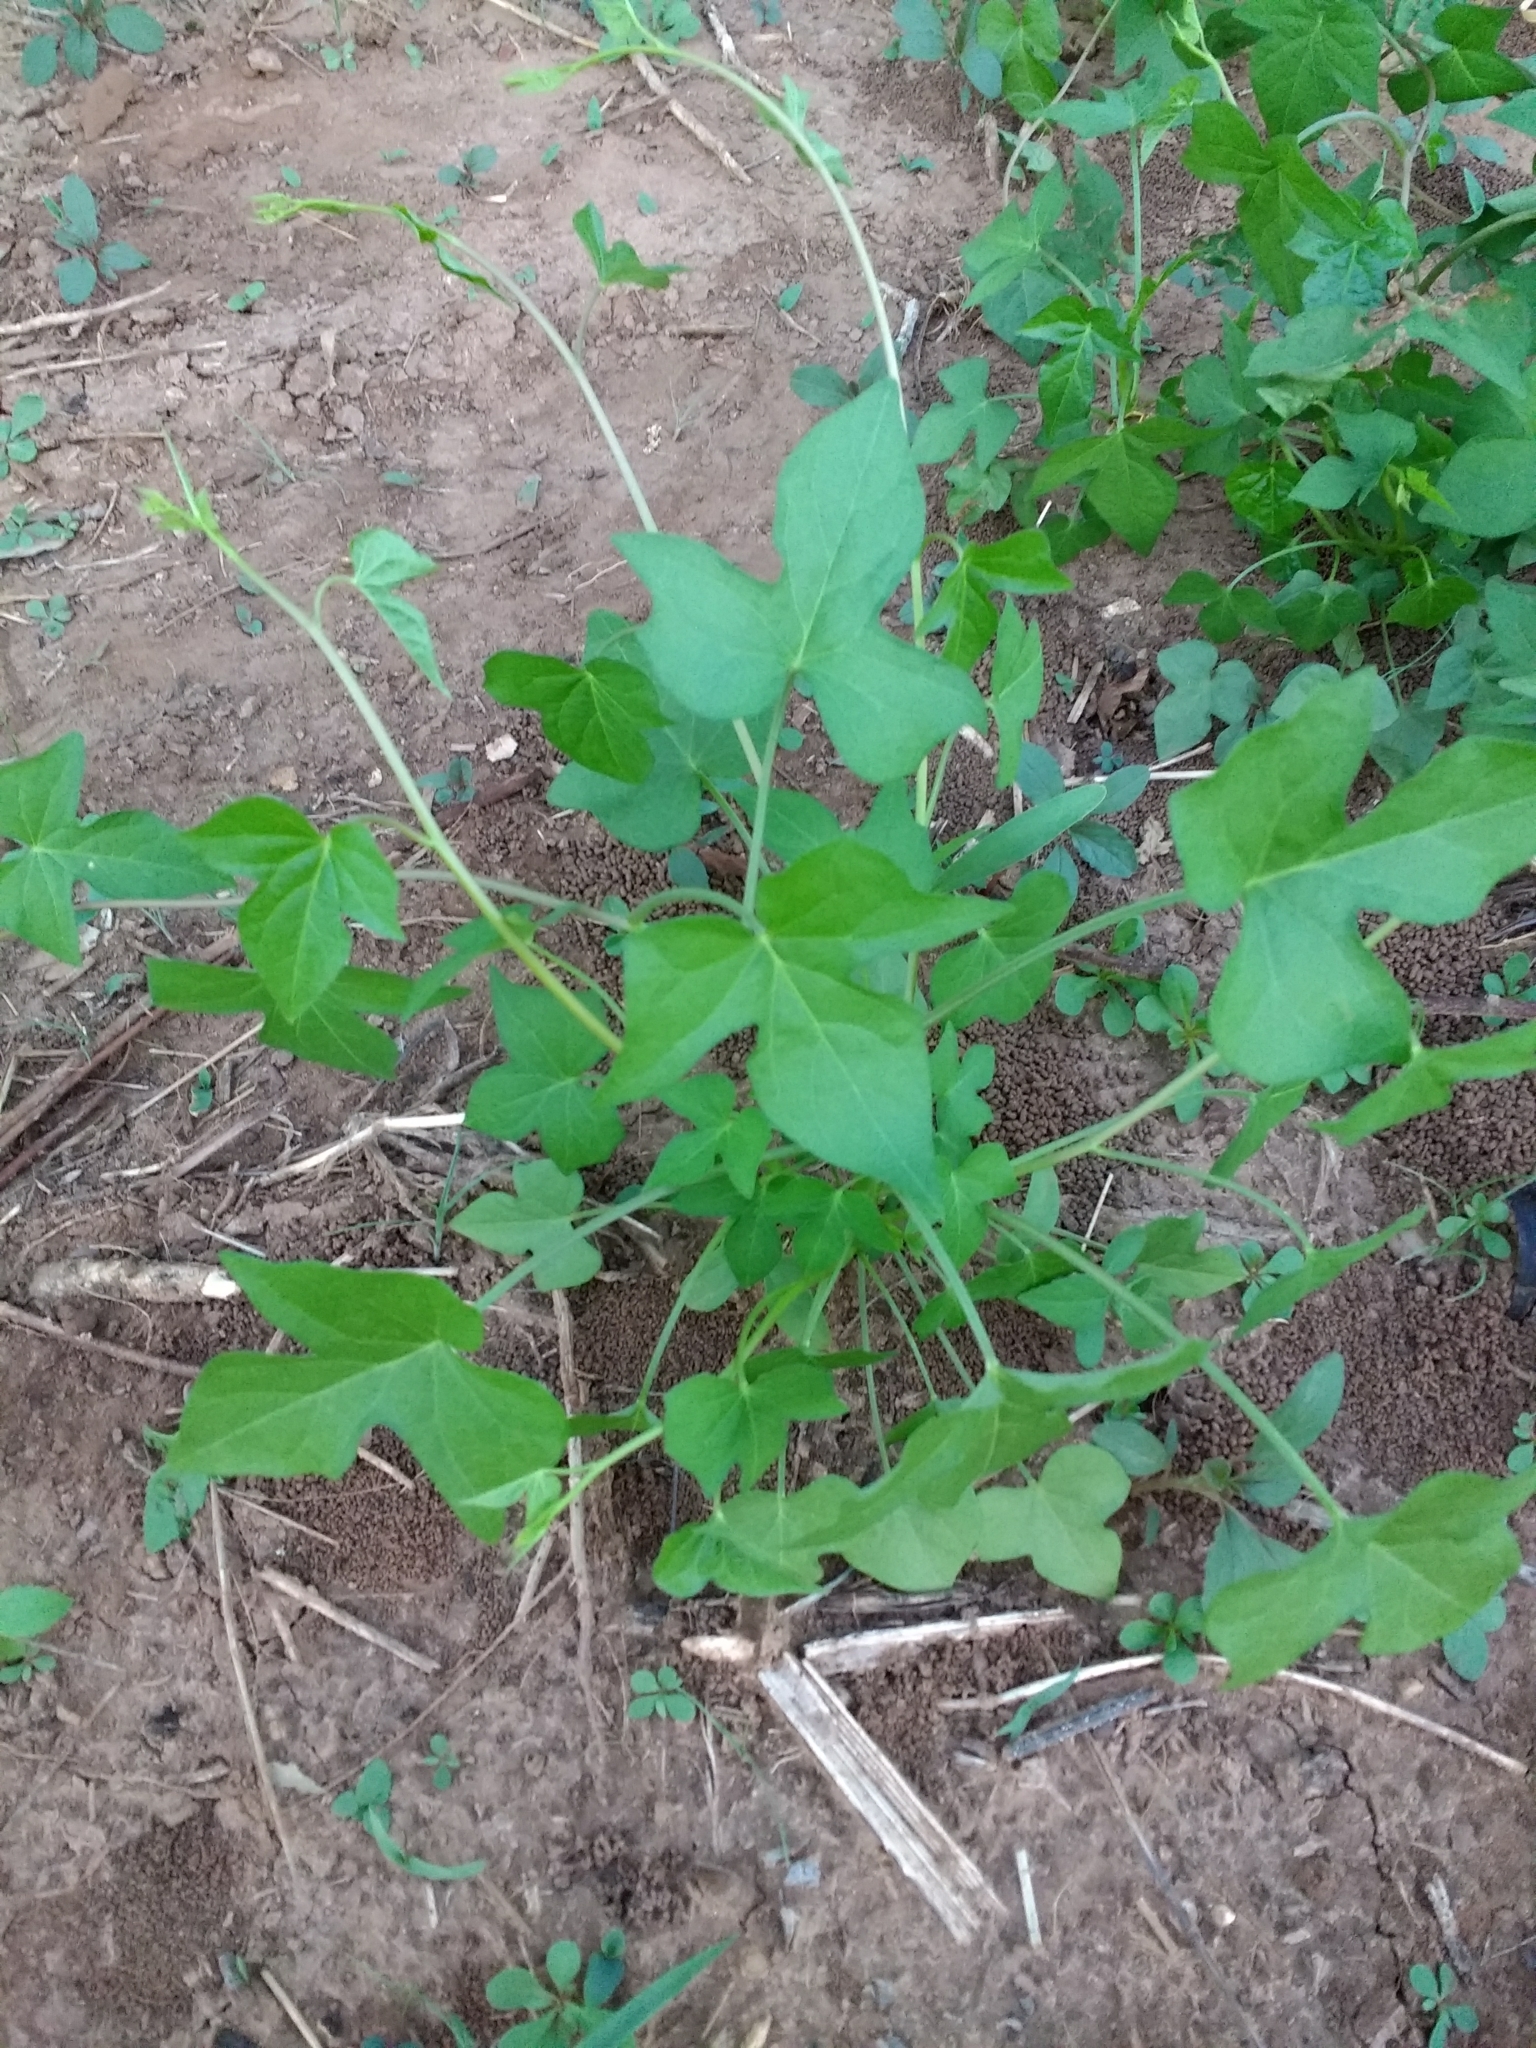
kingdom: Plantae
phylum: Tracheophyta
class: Magnoliopsida
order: Solanales
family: Convolvulaceae
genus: Ipomoea
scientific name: Ipomoea cordatotriloba
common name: Cotton morning glory
